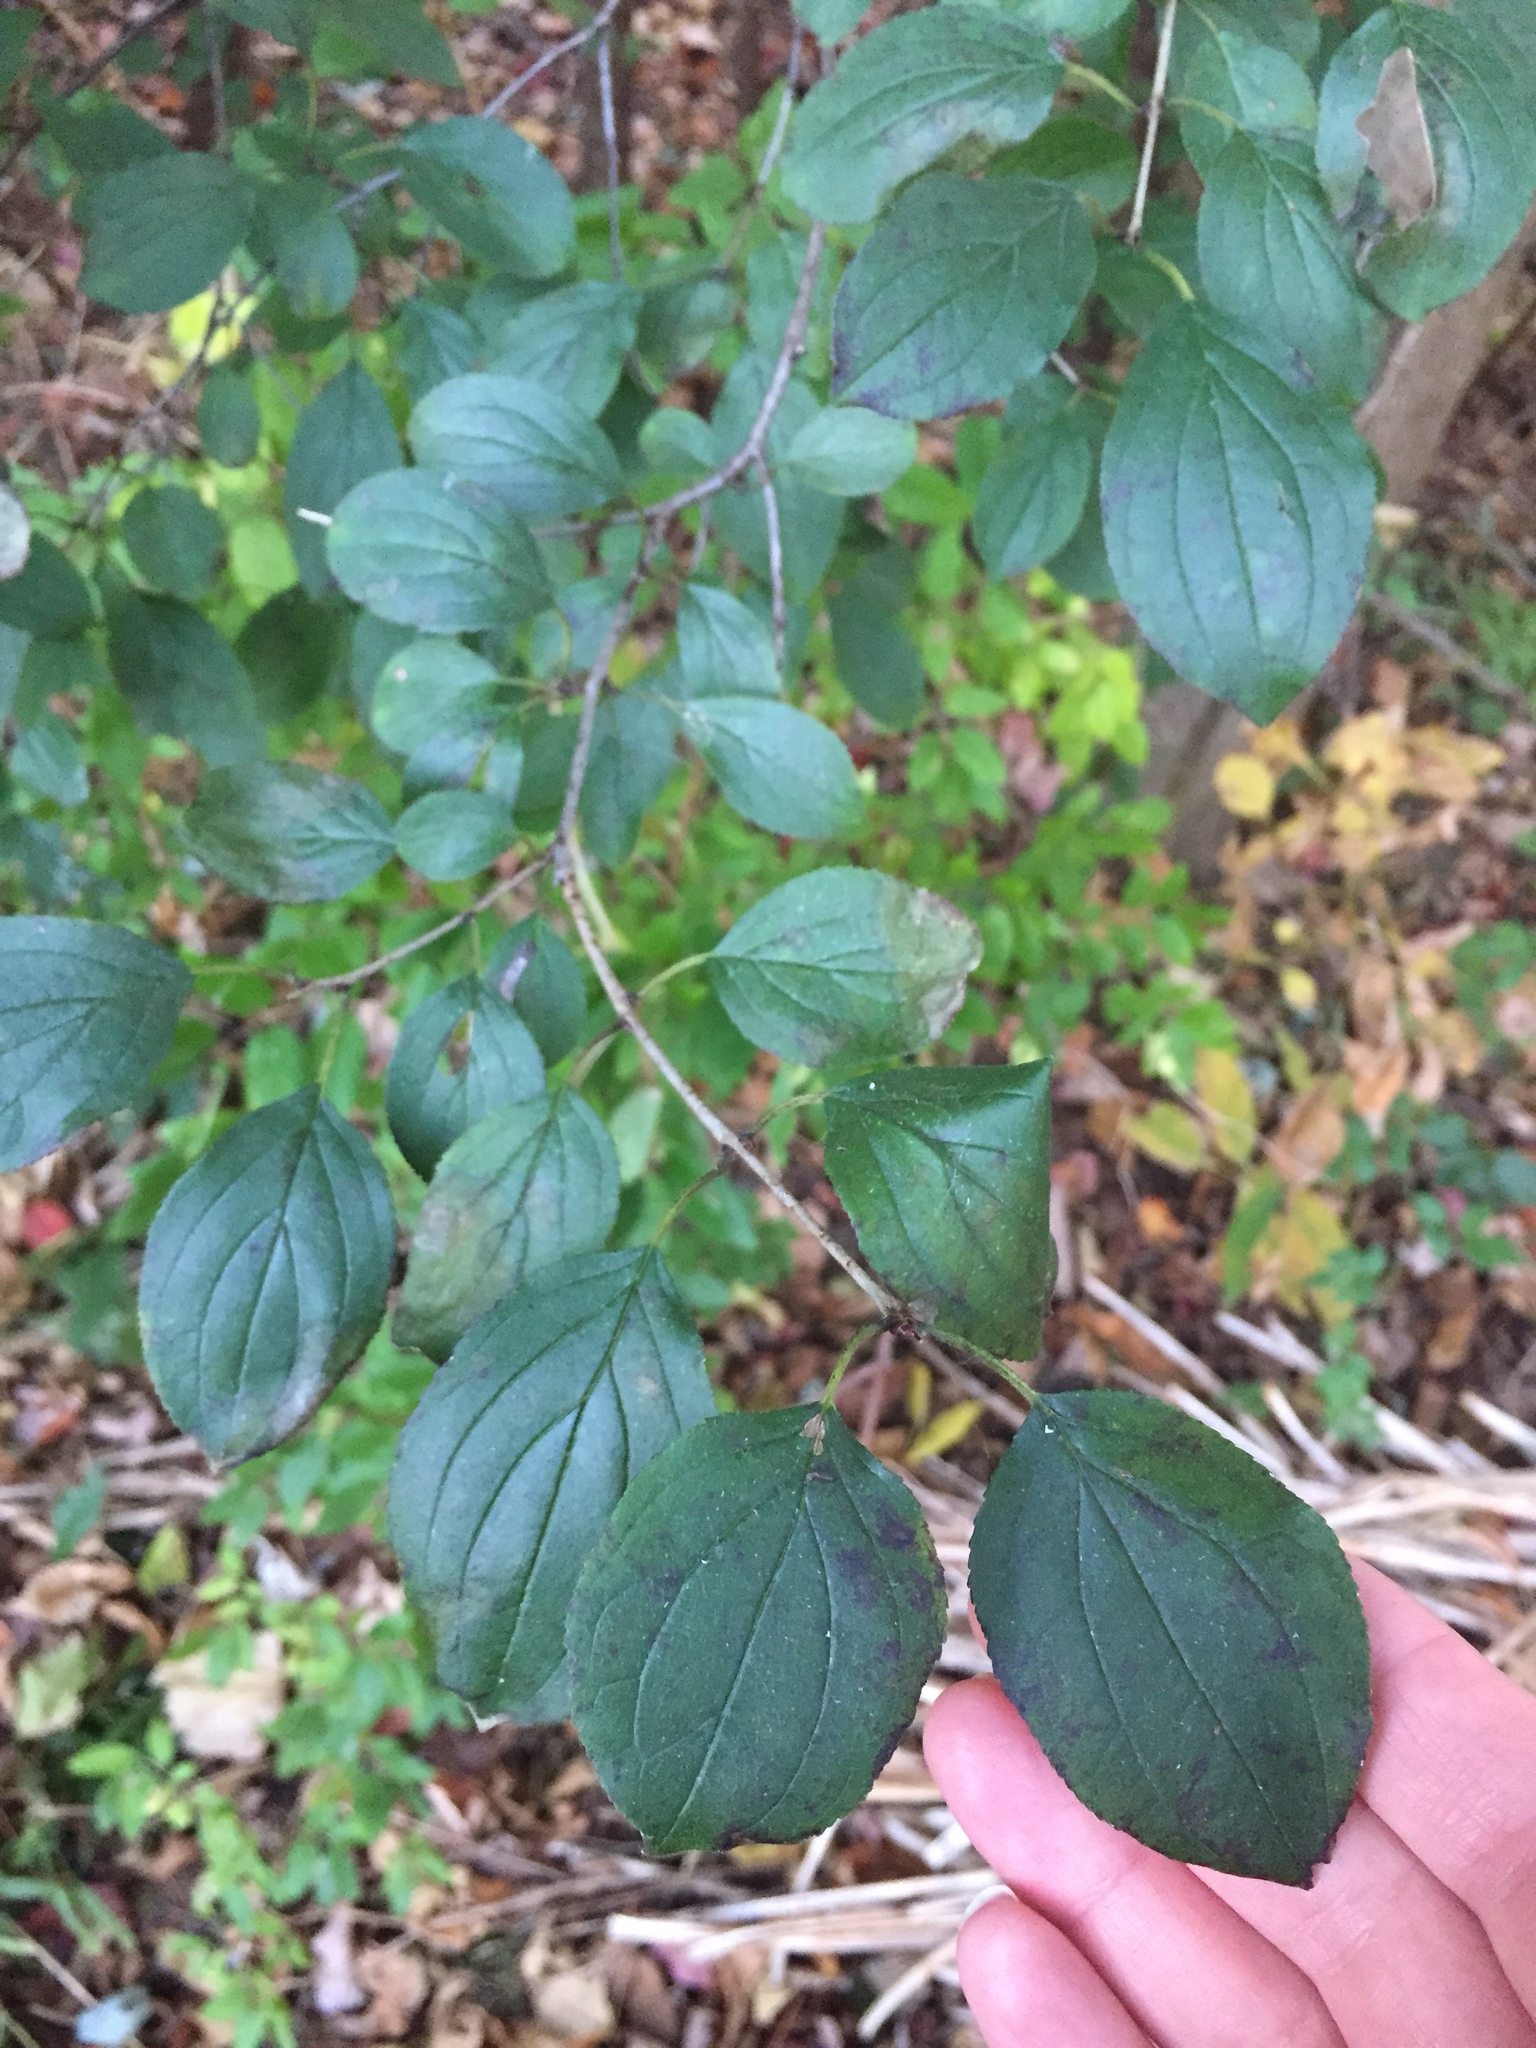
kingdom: Plantae
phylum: Tracheophyta
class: Magnoliopsida
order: Rosales
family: Rhamnaceae
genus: Rhamnus
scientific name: Rhamnus cathartica
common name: Common buckthorn
